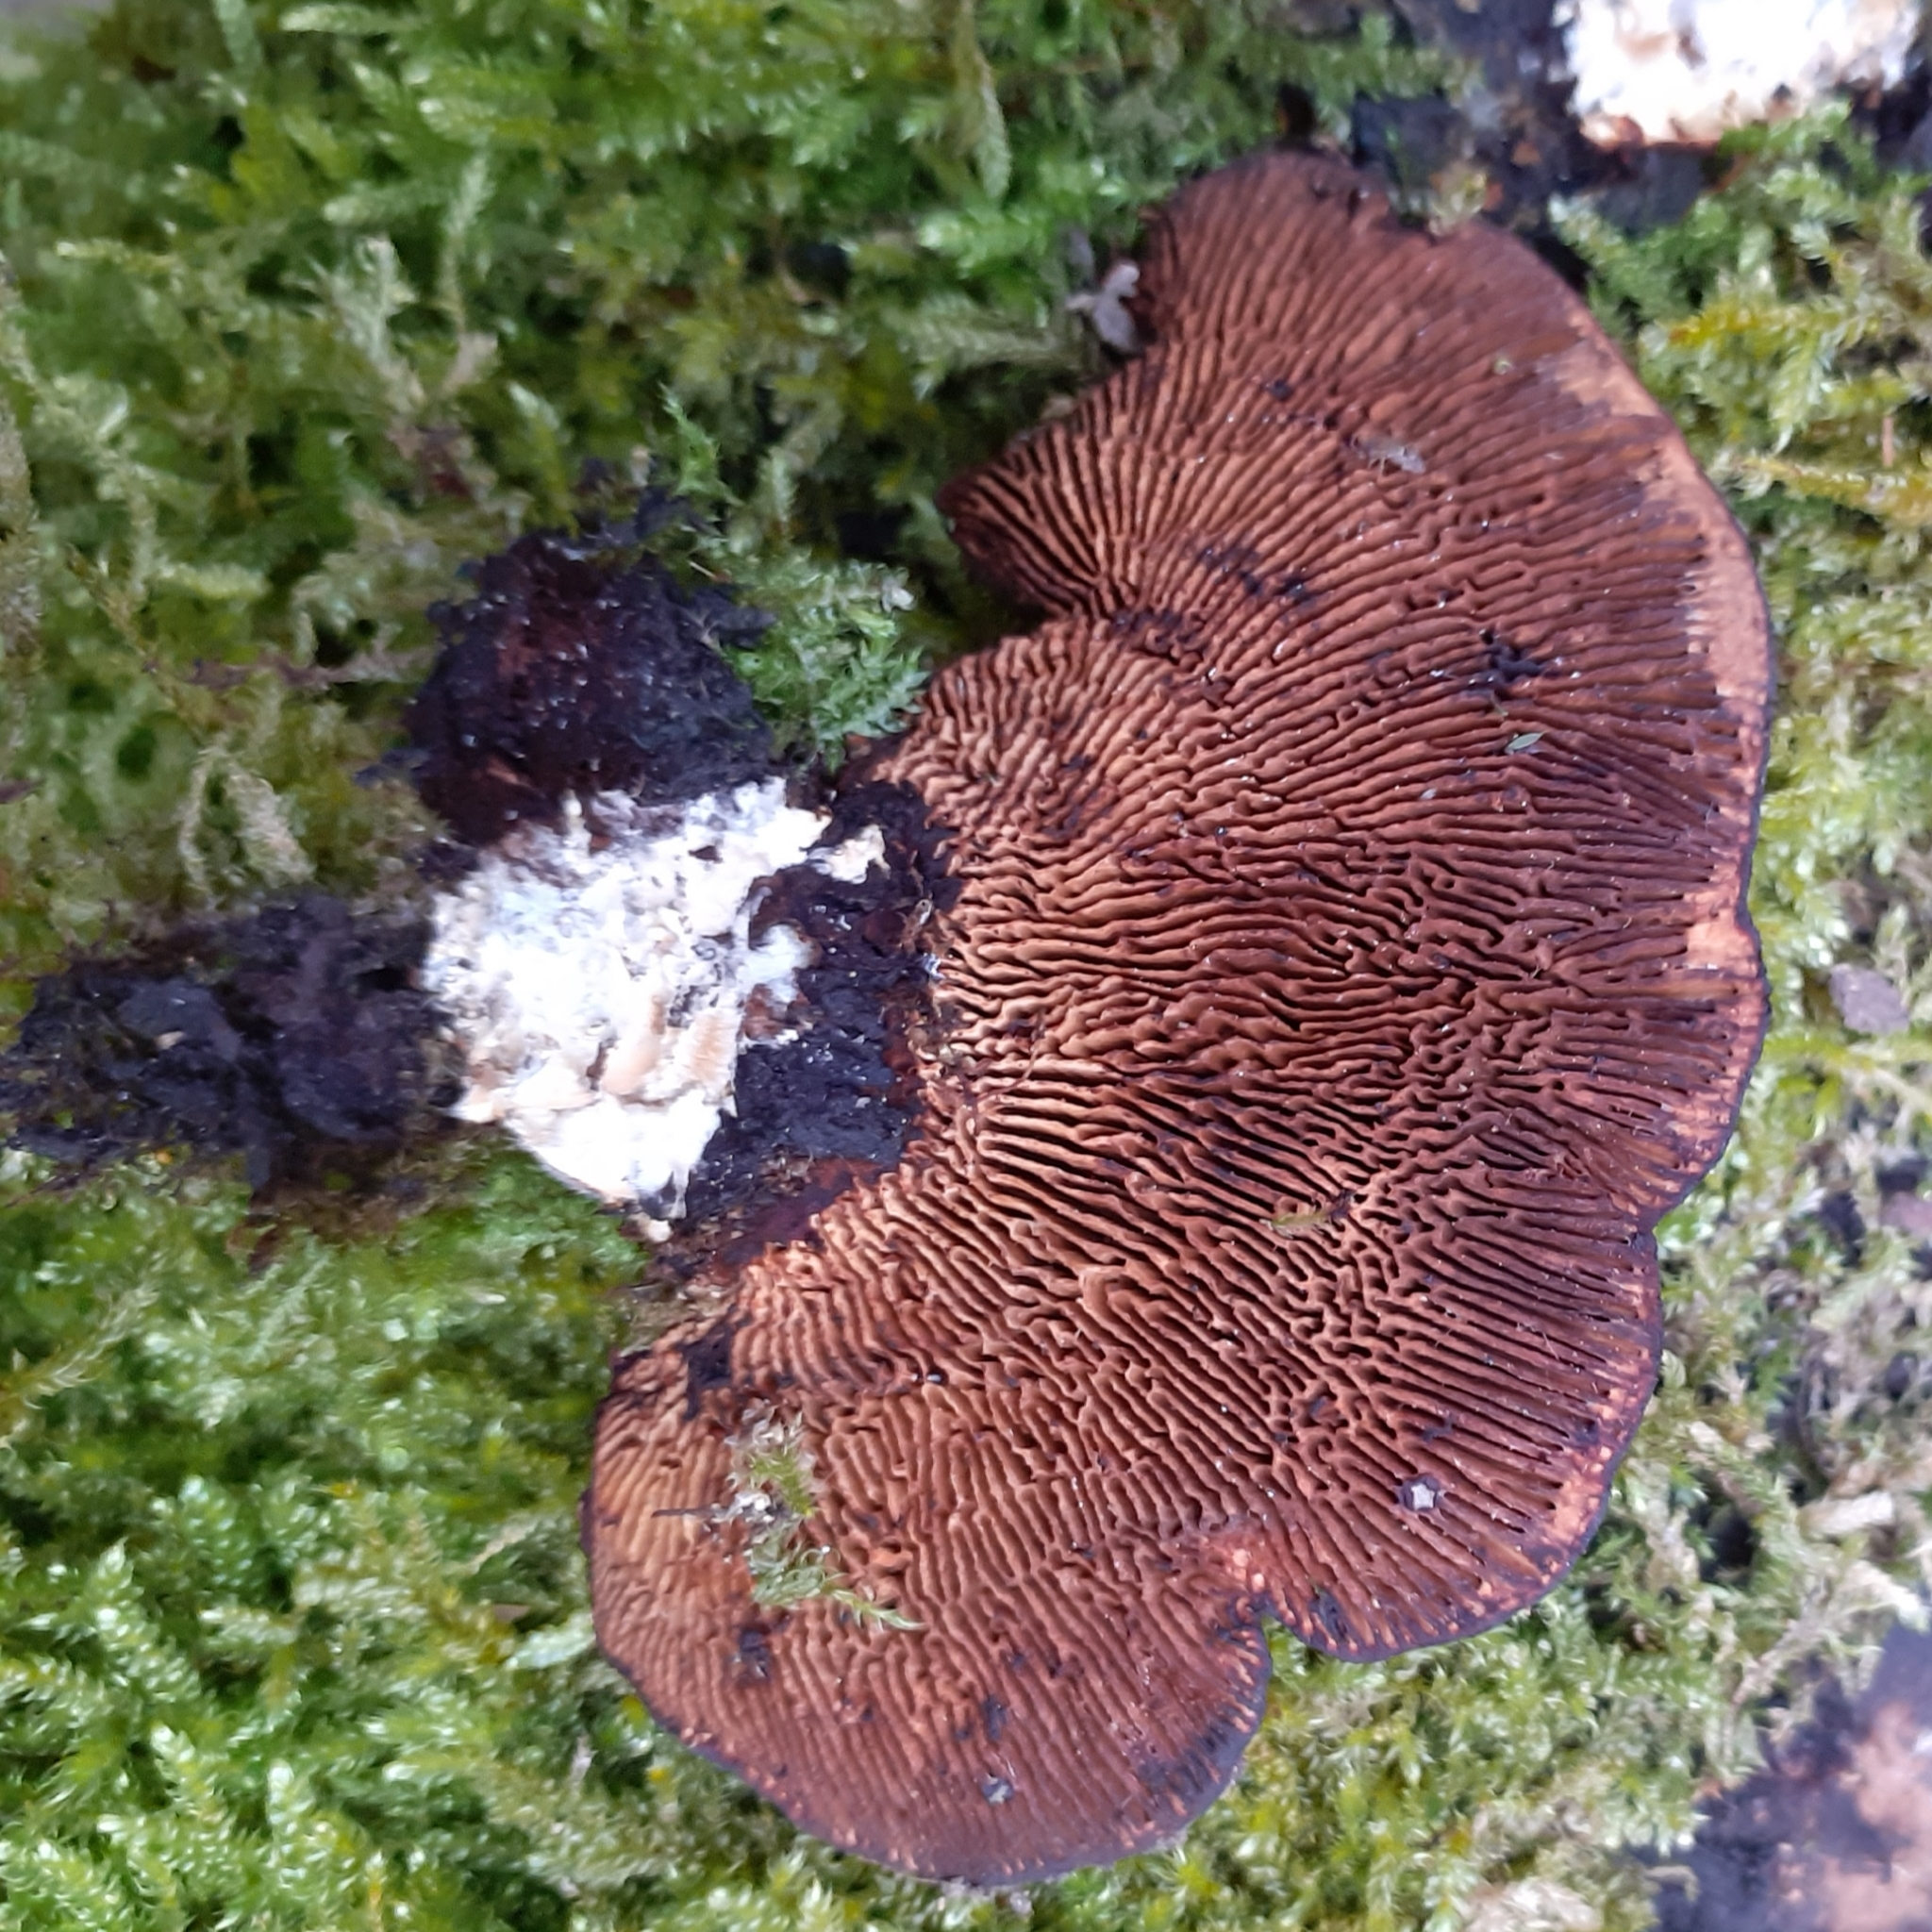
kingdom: Fungi
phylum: Basidiomycota
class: Agaricomycetes
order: Polyporales
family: Polyporaceae
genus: Daedaleopsis
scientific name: Daedaleopsis tricolor
